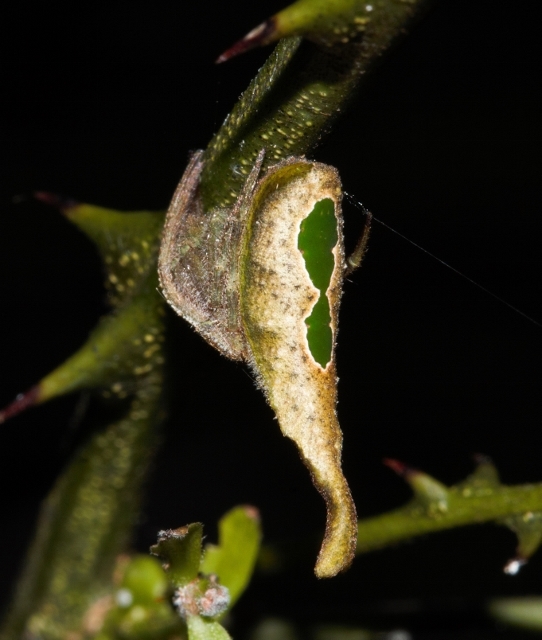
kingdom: Animalia
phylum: Arthropoda
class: Arachnida
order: Araneae
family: Araneidae
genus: Poltys
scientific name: Poltys furcifer
